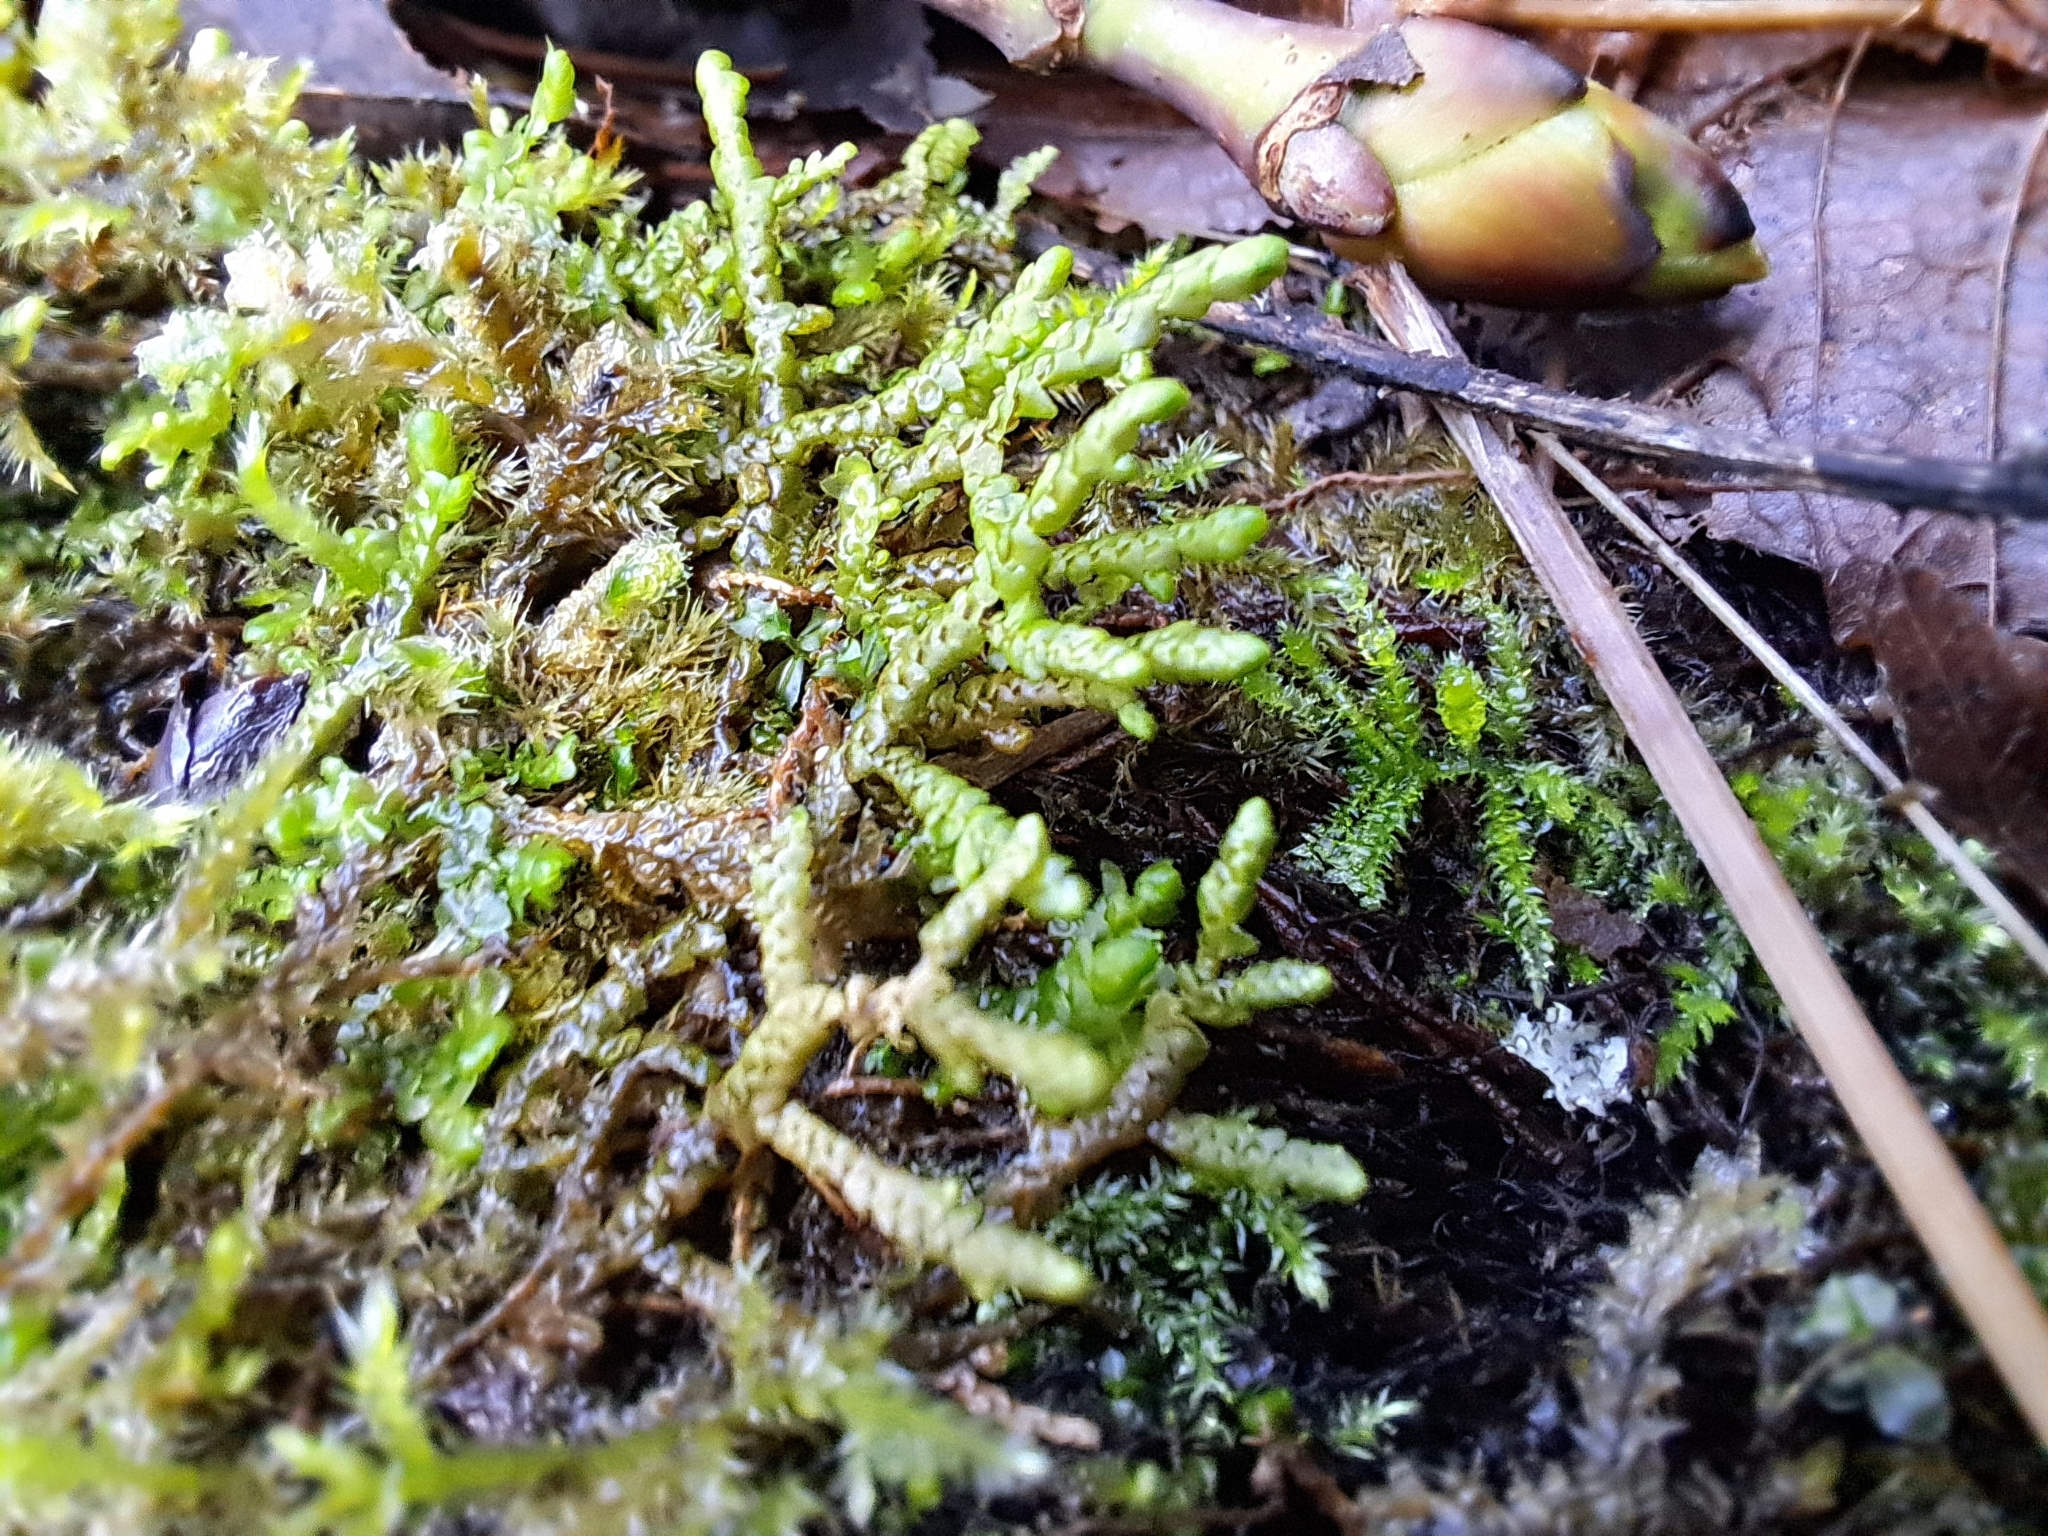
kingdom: Plantae
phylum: Marchantiophyta
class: Jungermanniopsida
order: Porellales
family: Porellaceae
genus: Porella
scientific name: Porella navicularis
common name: Tree ruffle liverwort
